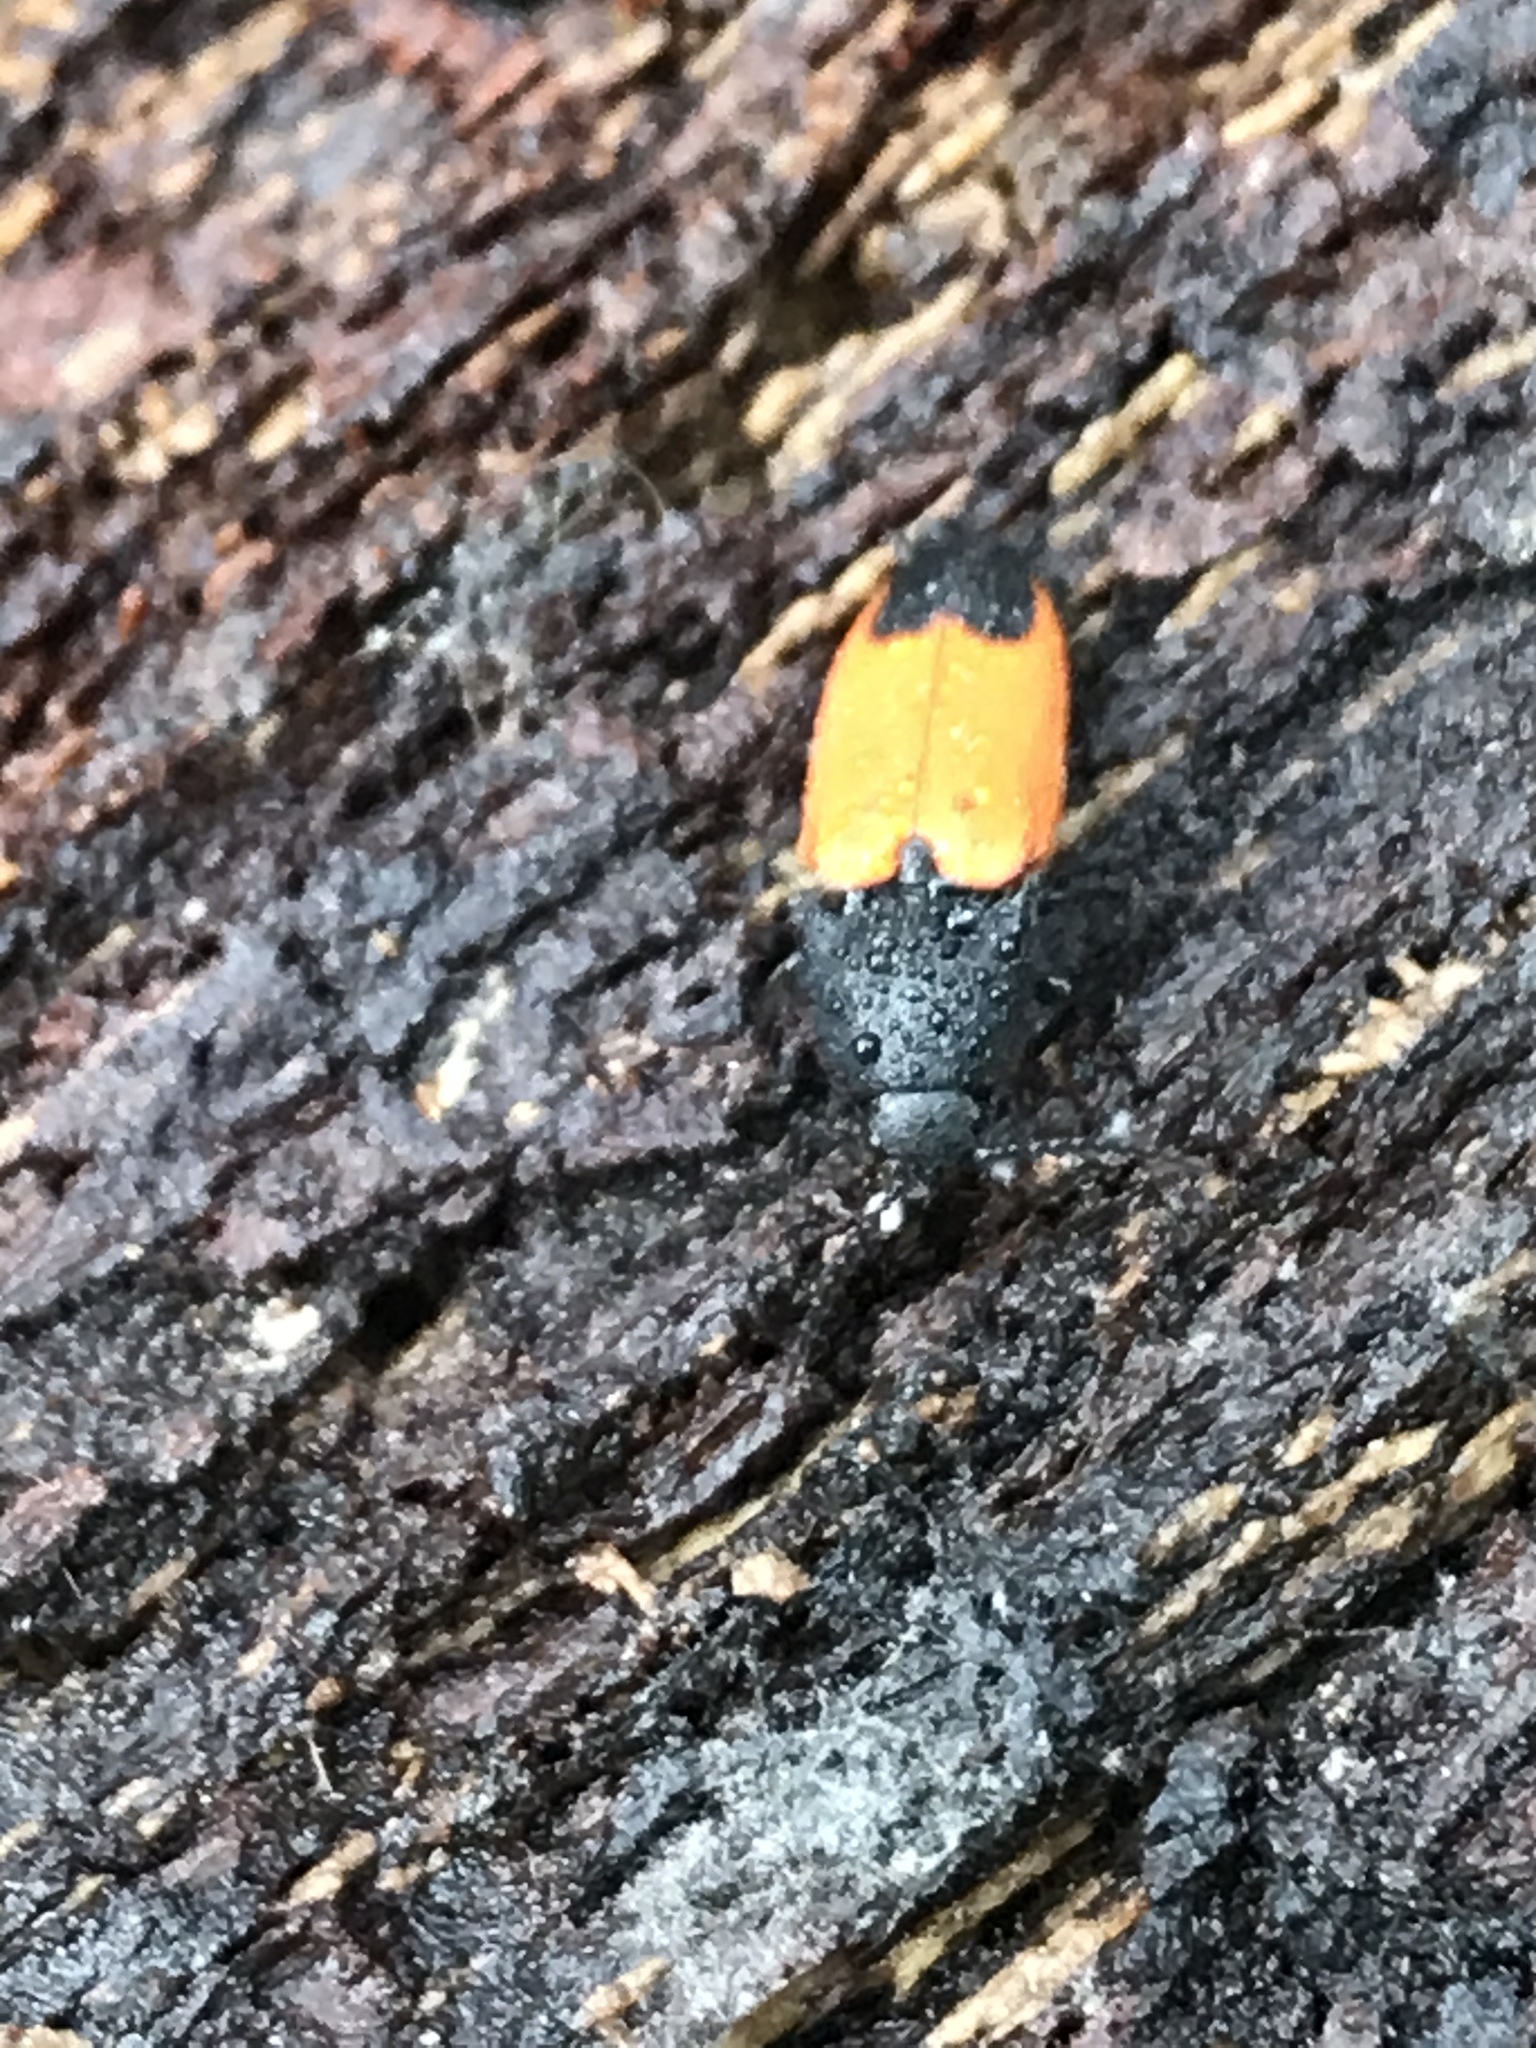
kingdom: Animalia
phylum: Arthropoda
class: Insecta
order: Coleoptera
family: Elateridae
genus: Ampedus
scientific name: Ampedus
